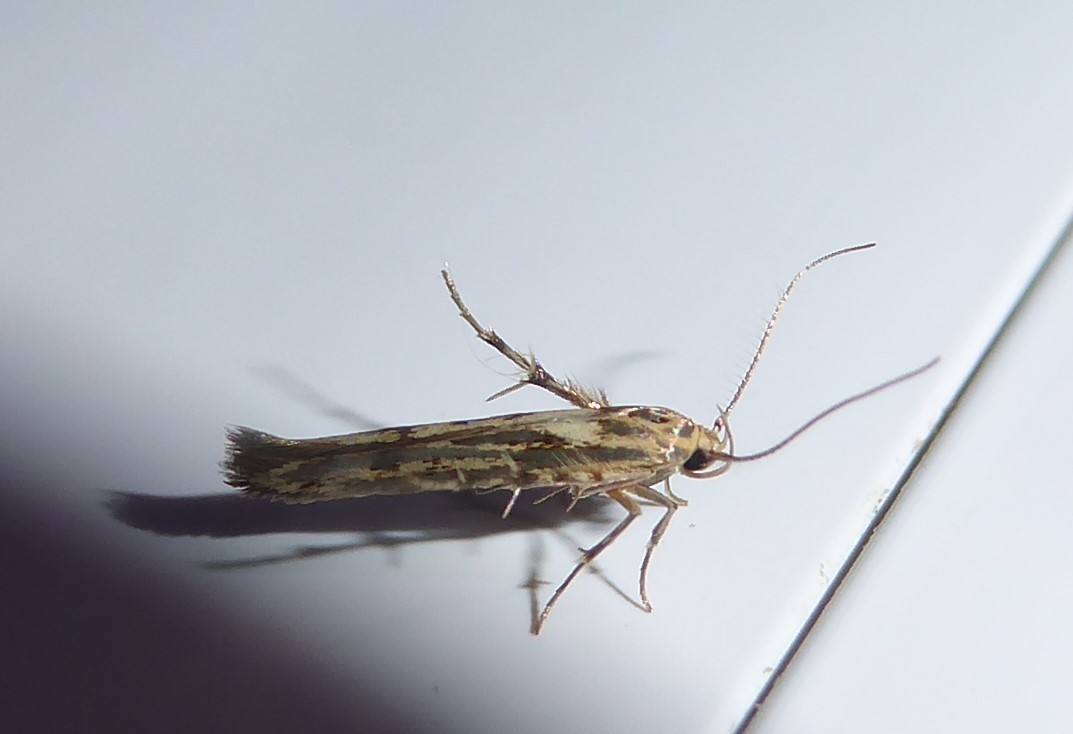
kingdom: Animalia
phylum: Arthropoda
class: Insecta
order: Lepidoptera
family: Stathmopodidae
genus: Stathmopoda
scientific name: Stathmopoda plumbiflua
